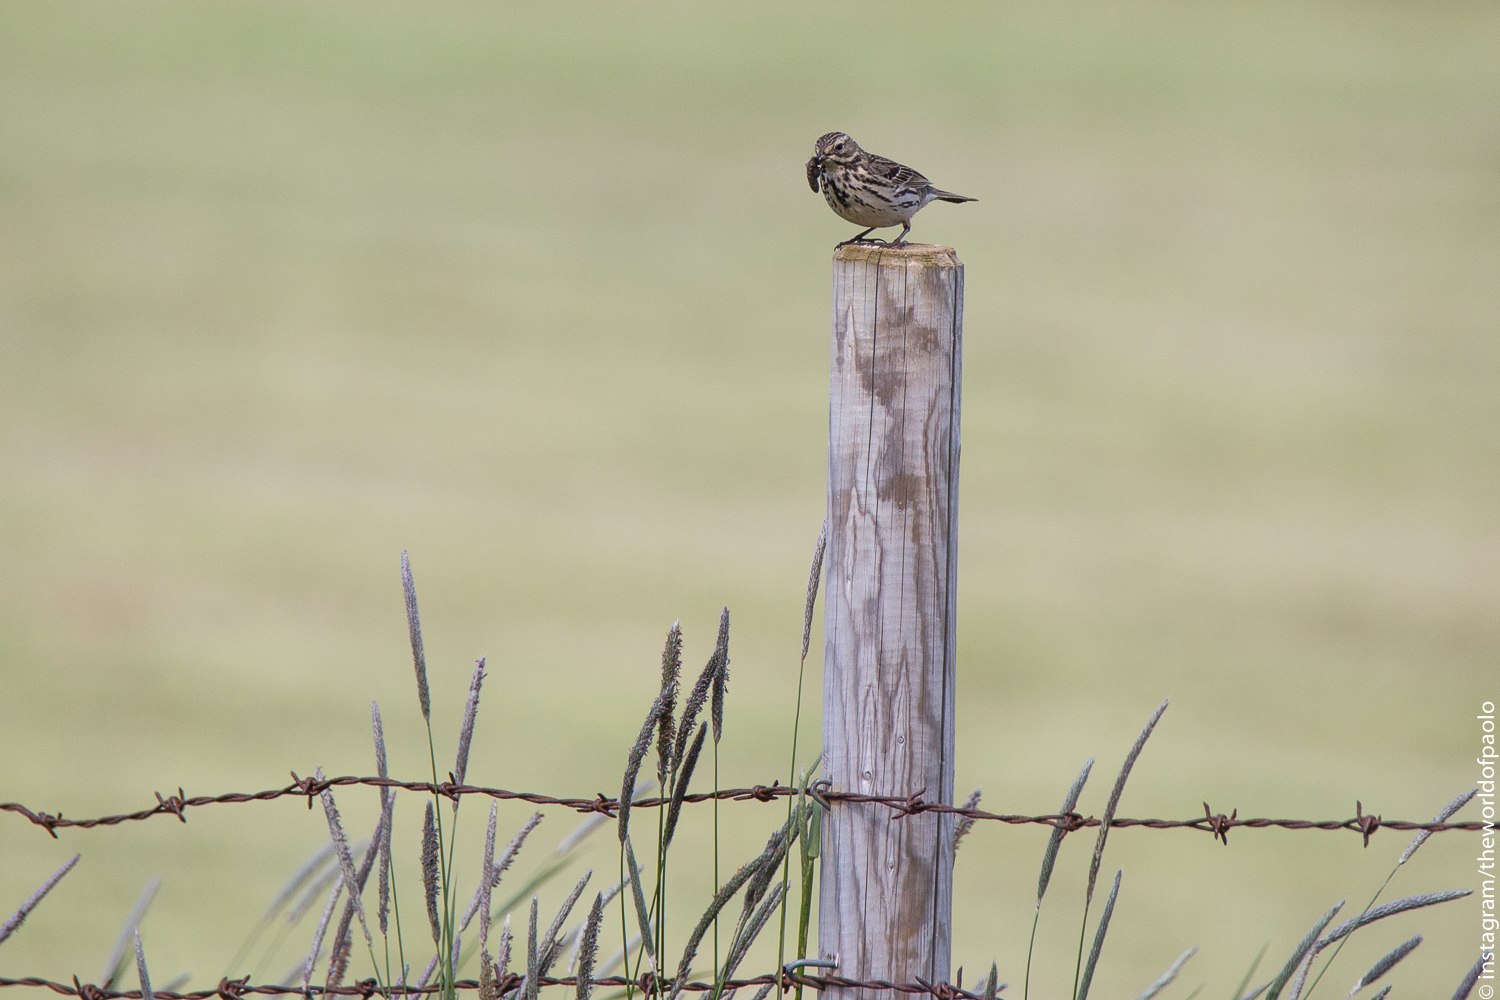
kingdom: Animalia
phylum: Chordata
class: Aves
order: Passeriformes
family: Motacillidae
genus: Anthus
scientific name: Anthus pratensis
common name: Meadow pipit
